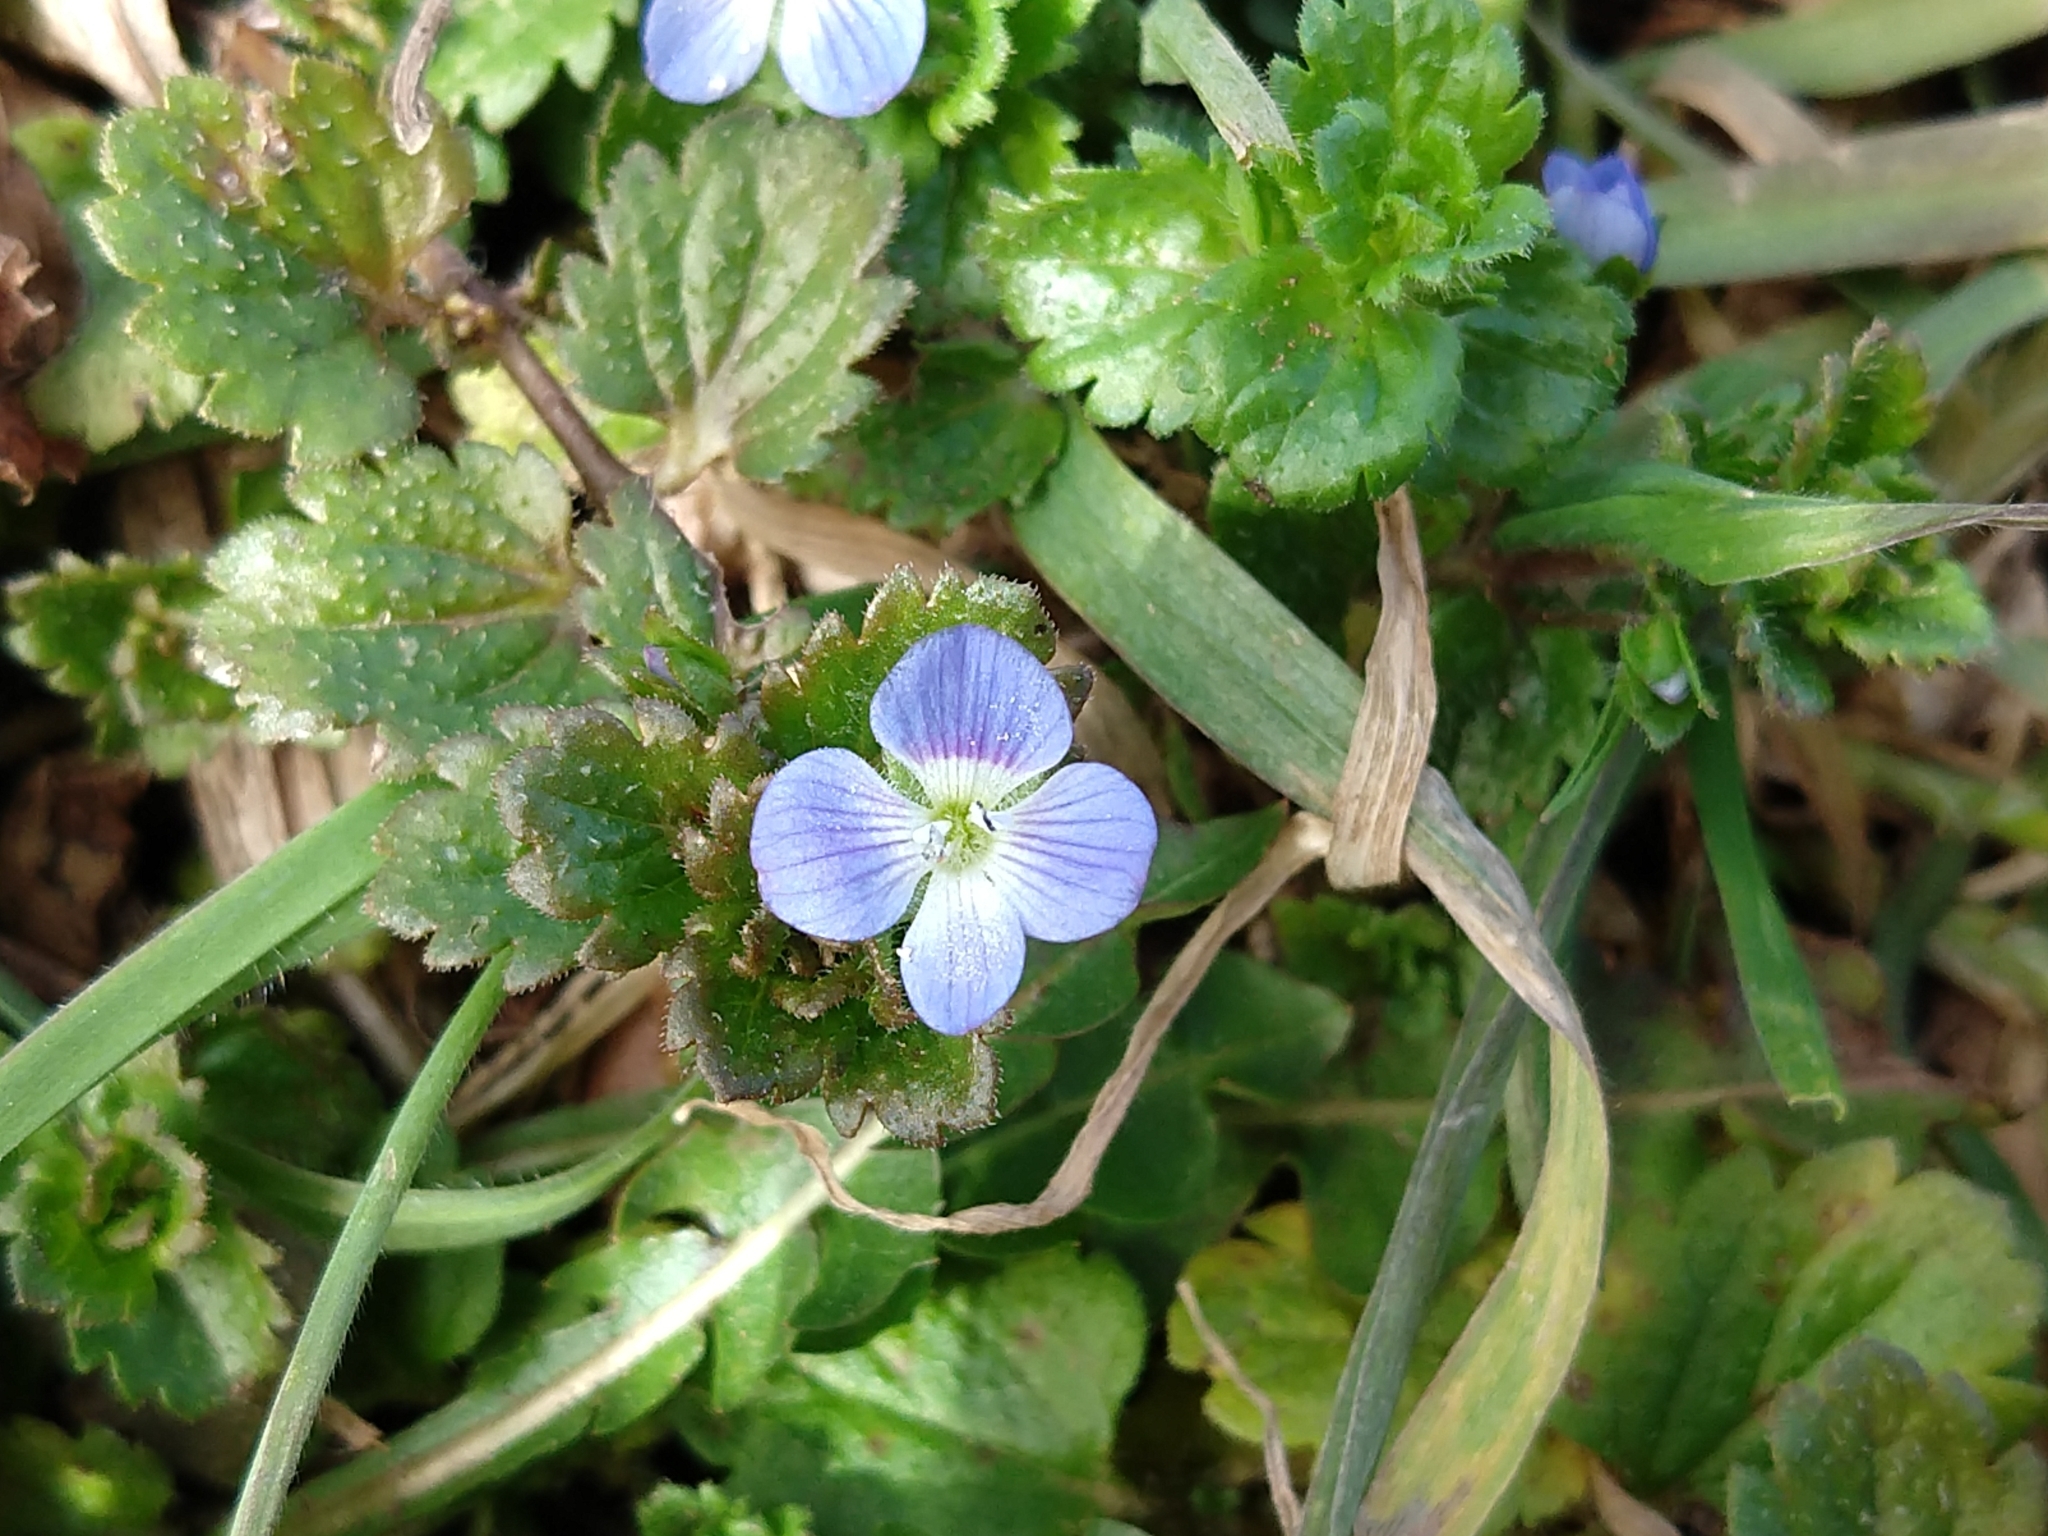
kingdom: Plantae
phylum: Tracheophyta
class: Magnoliopsida
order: Lamiales
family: Plantaginaceae
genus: Veronica
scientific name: Veronica persica
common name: Common field-speedwell
